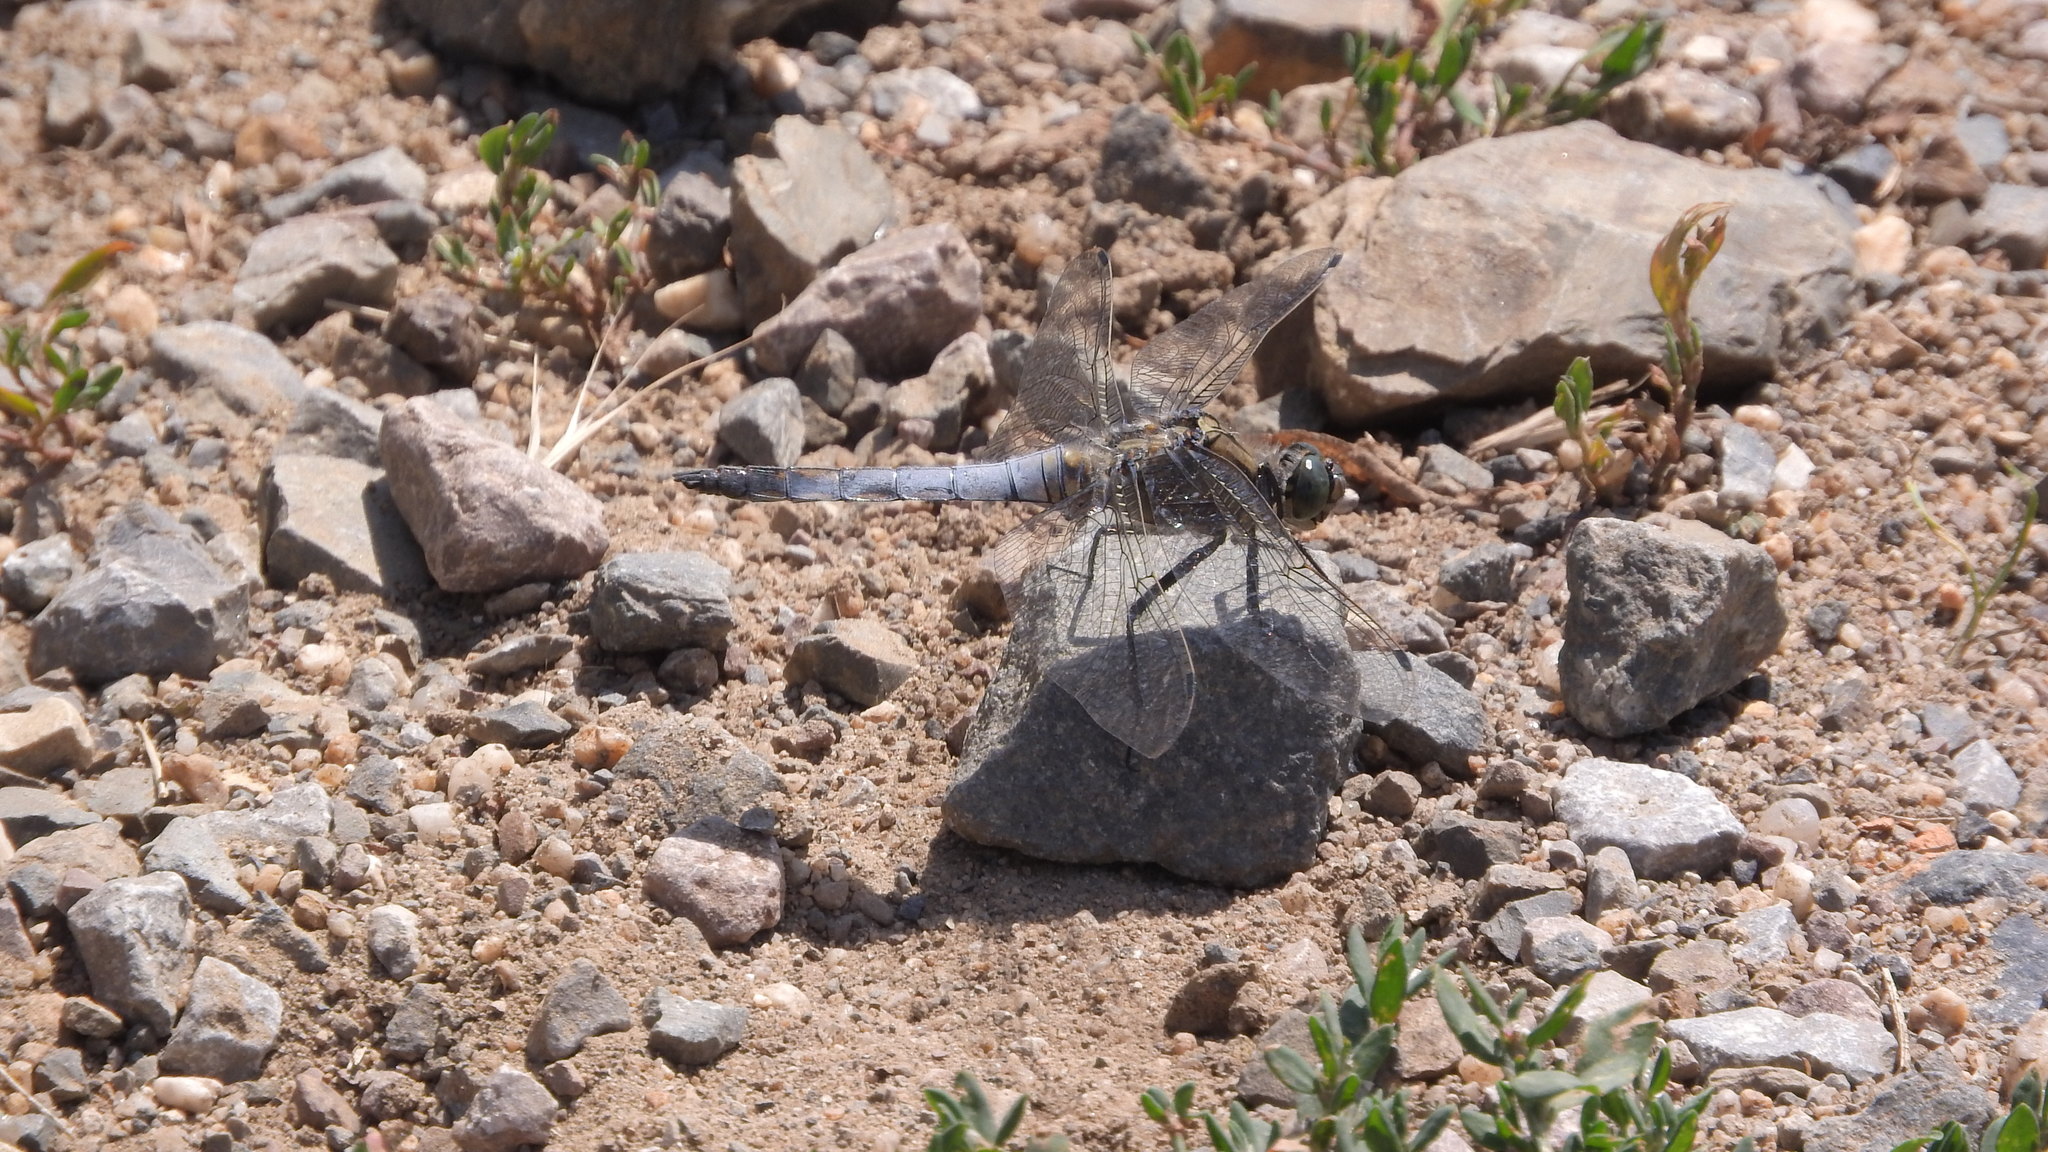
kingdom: Animalia
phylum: Arthropoda
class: Insecta
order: Odonata
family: Libellulidae
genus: Orthetrum
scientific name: Orthetrum cancellatum
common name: Black-tailed skimmer
